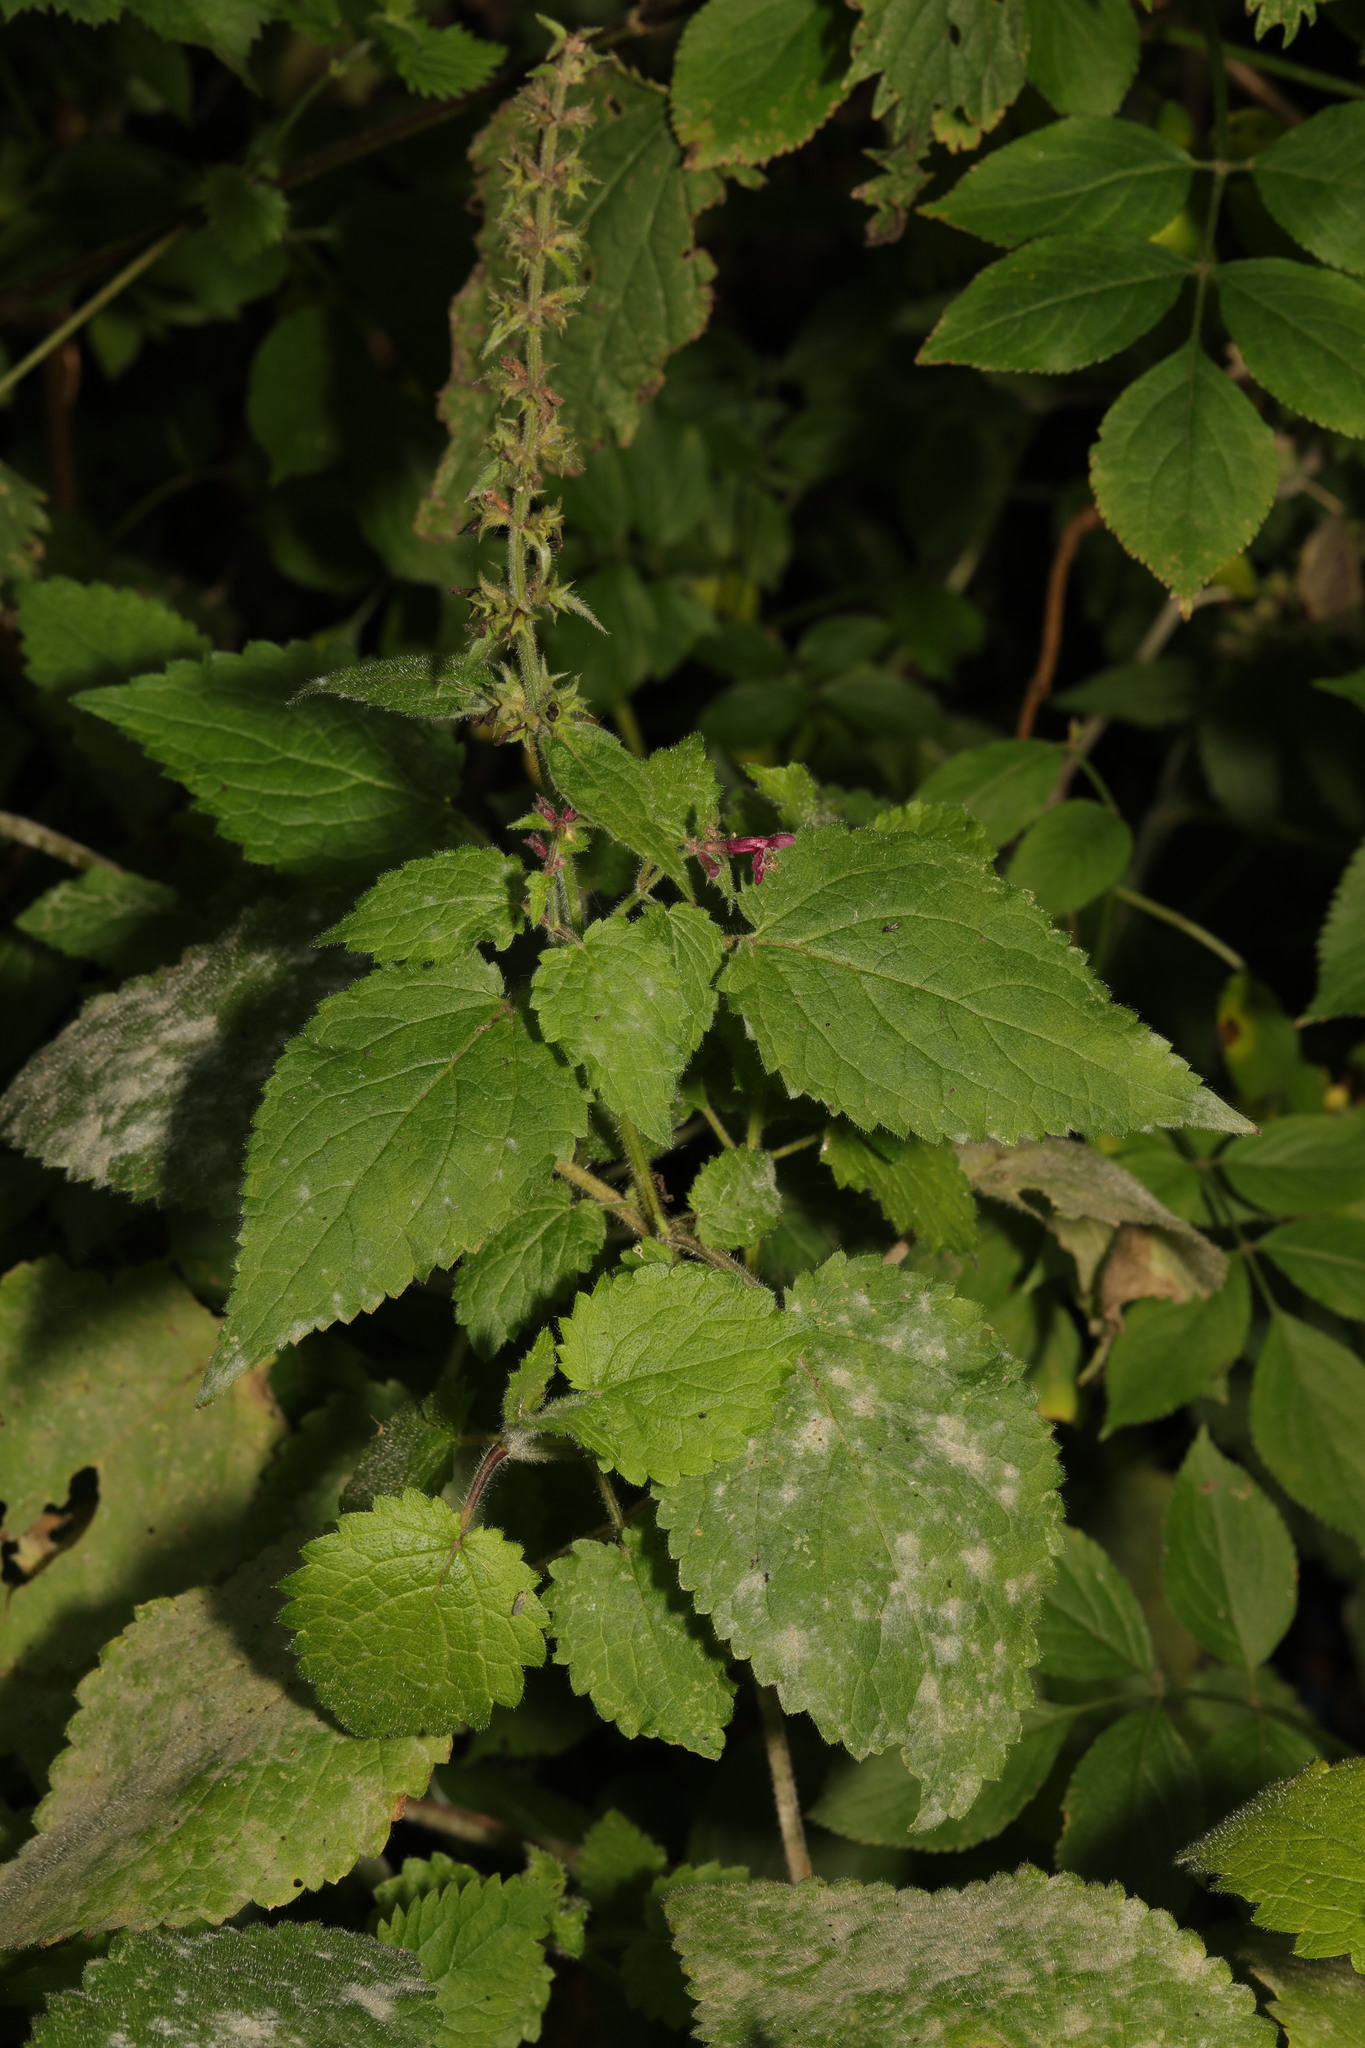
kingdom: Plantae
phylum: Tracheophyta
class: Magnoliopsida
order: Lamiales
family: Lamiaceae
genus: Stachys
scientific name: Stachys sylvatica
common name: Hedge woundwort
